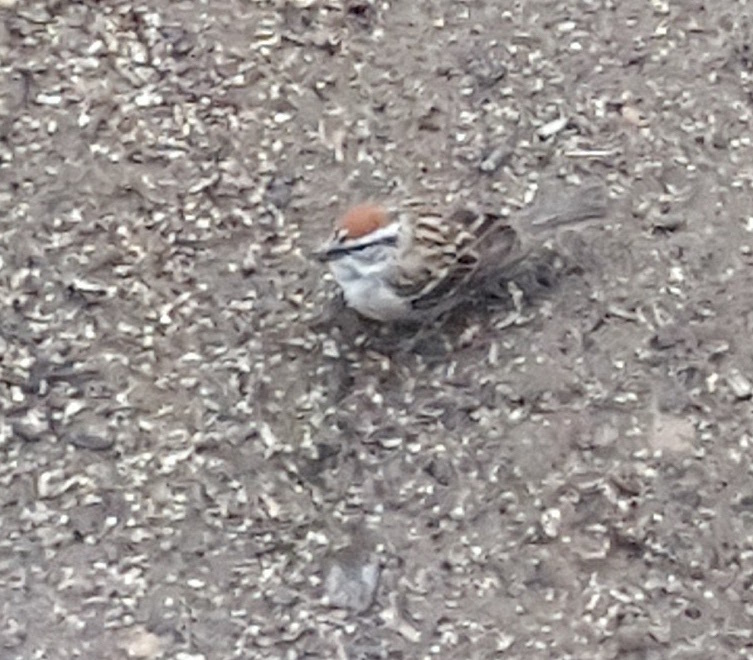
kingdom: Animalia
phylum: Chordata
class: Aves
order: Passeriformes
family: Passerellidae
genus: Spizella
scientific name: Spizella passerina
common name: Chipping sparrow
